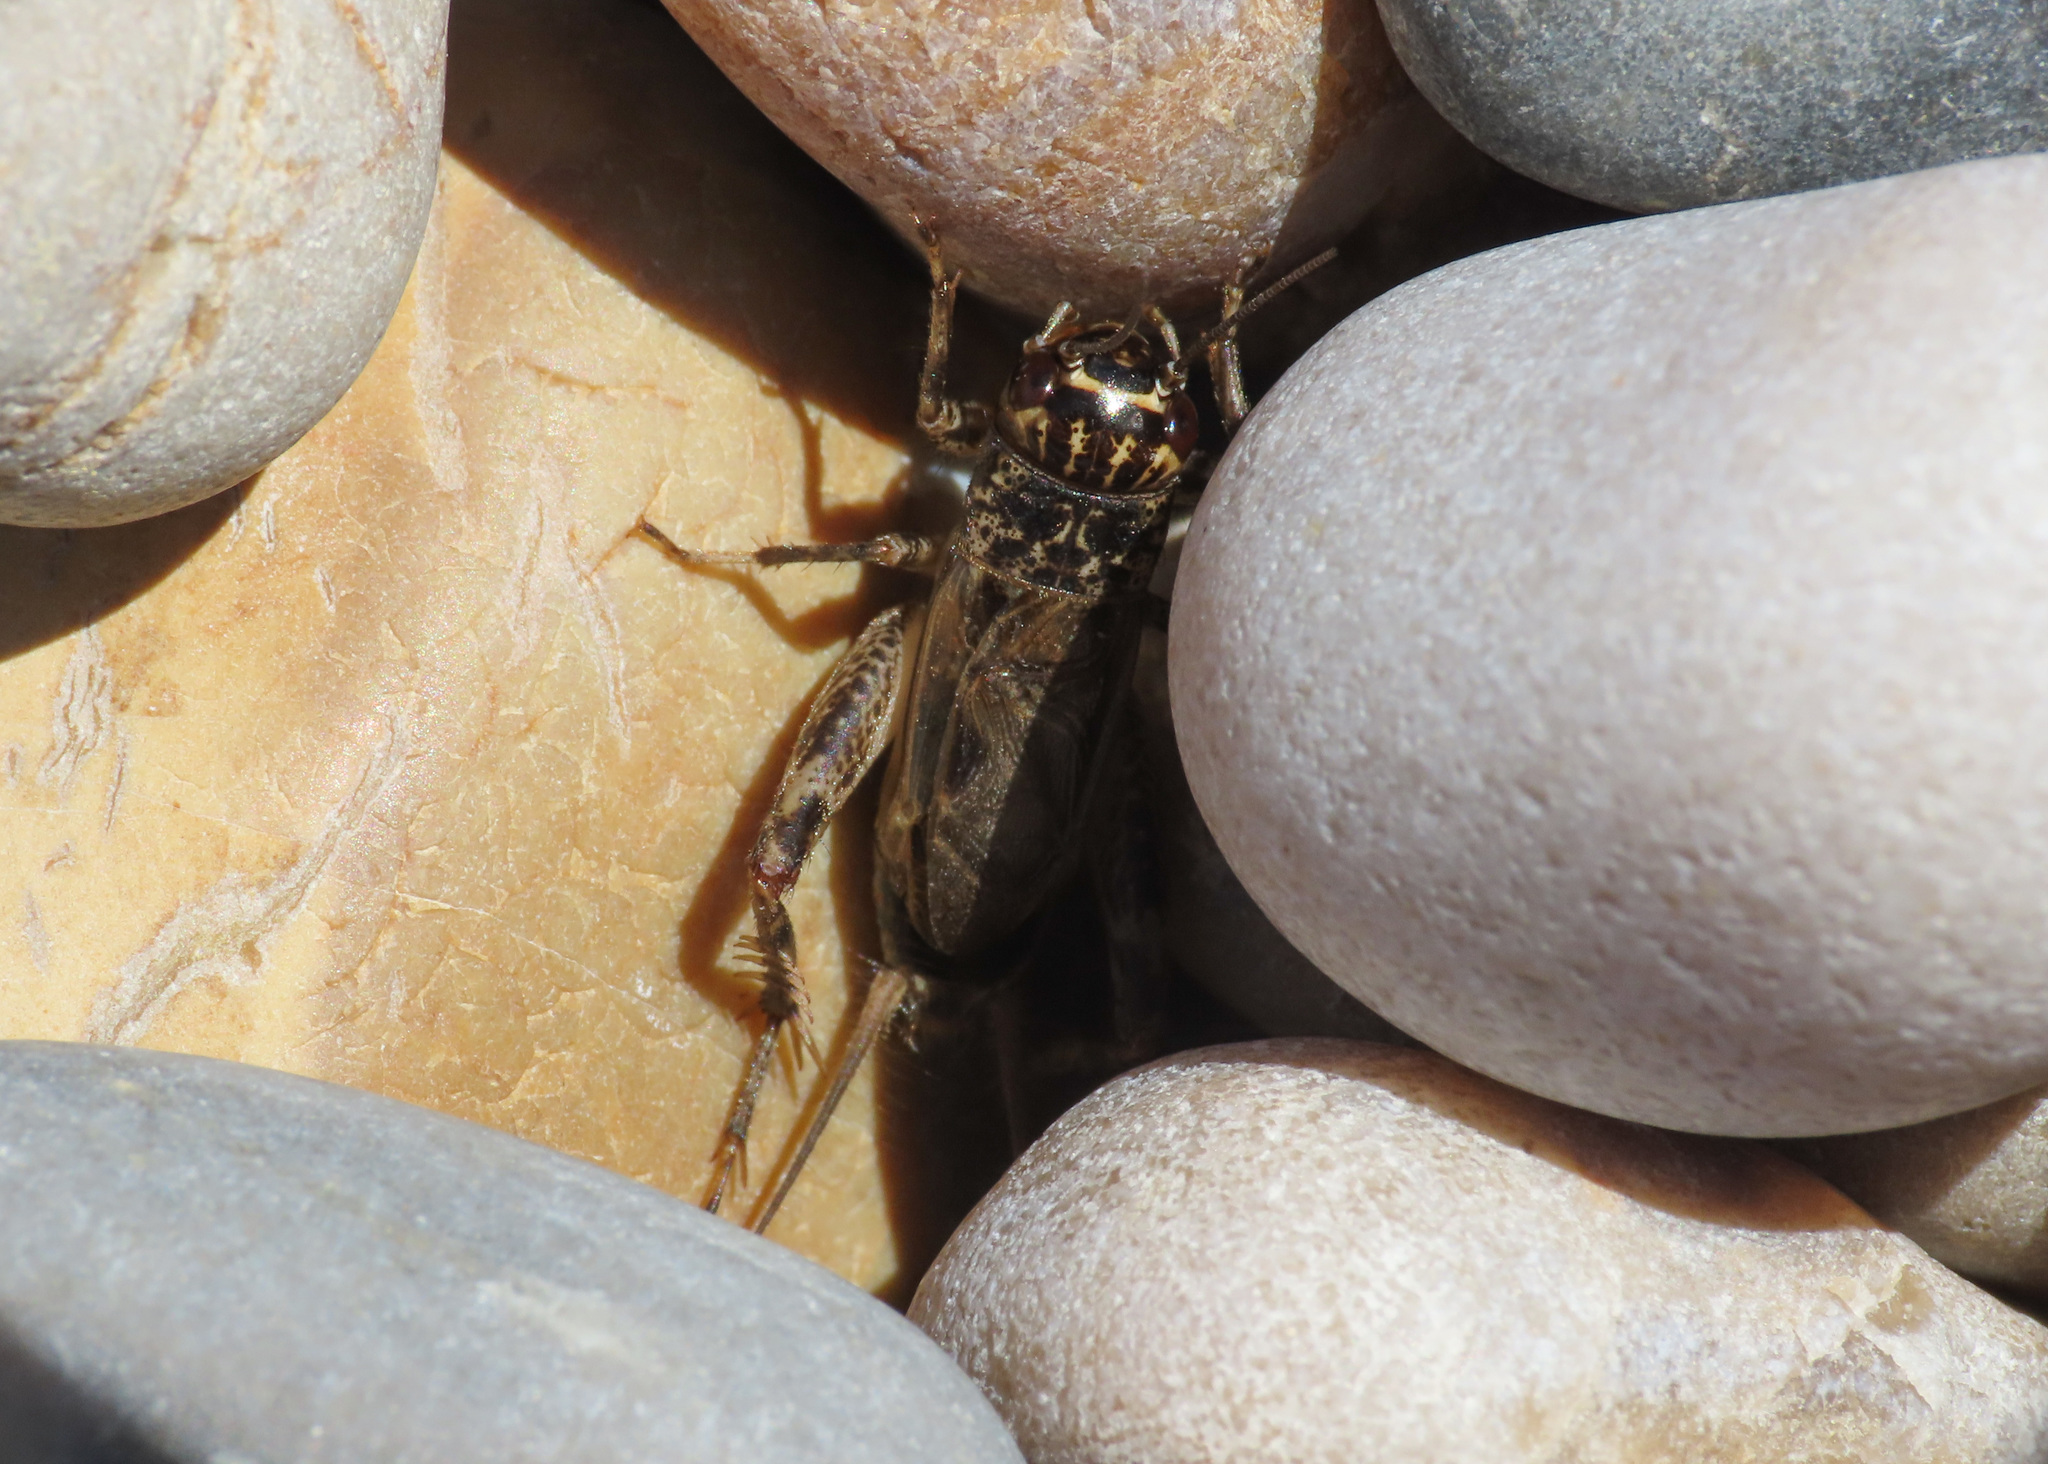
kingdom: Animalia
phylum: Arthropoda
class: Insecta
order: Orthoptera
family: Gryllidae
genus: Eumodicogryllus
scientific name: Eumodicogryllus bordigalensis
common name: Bordeaux cricket
